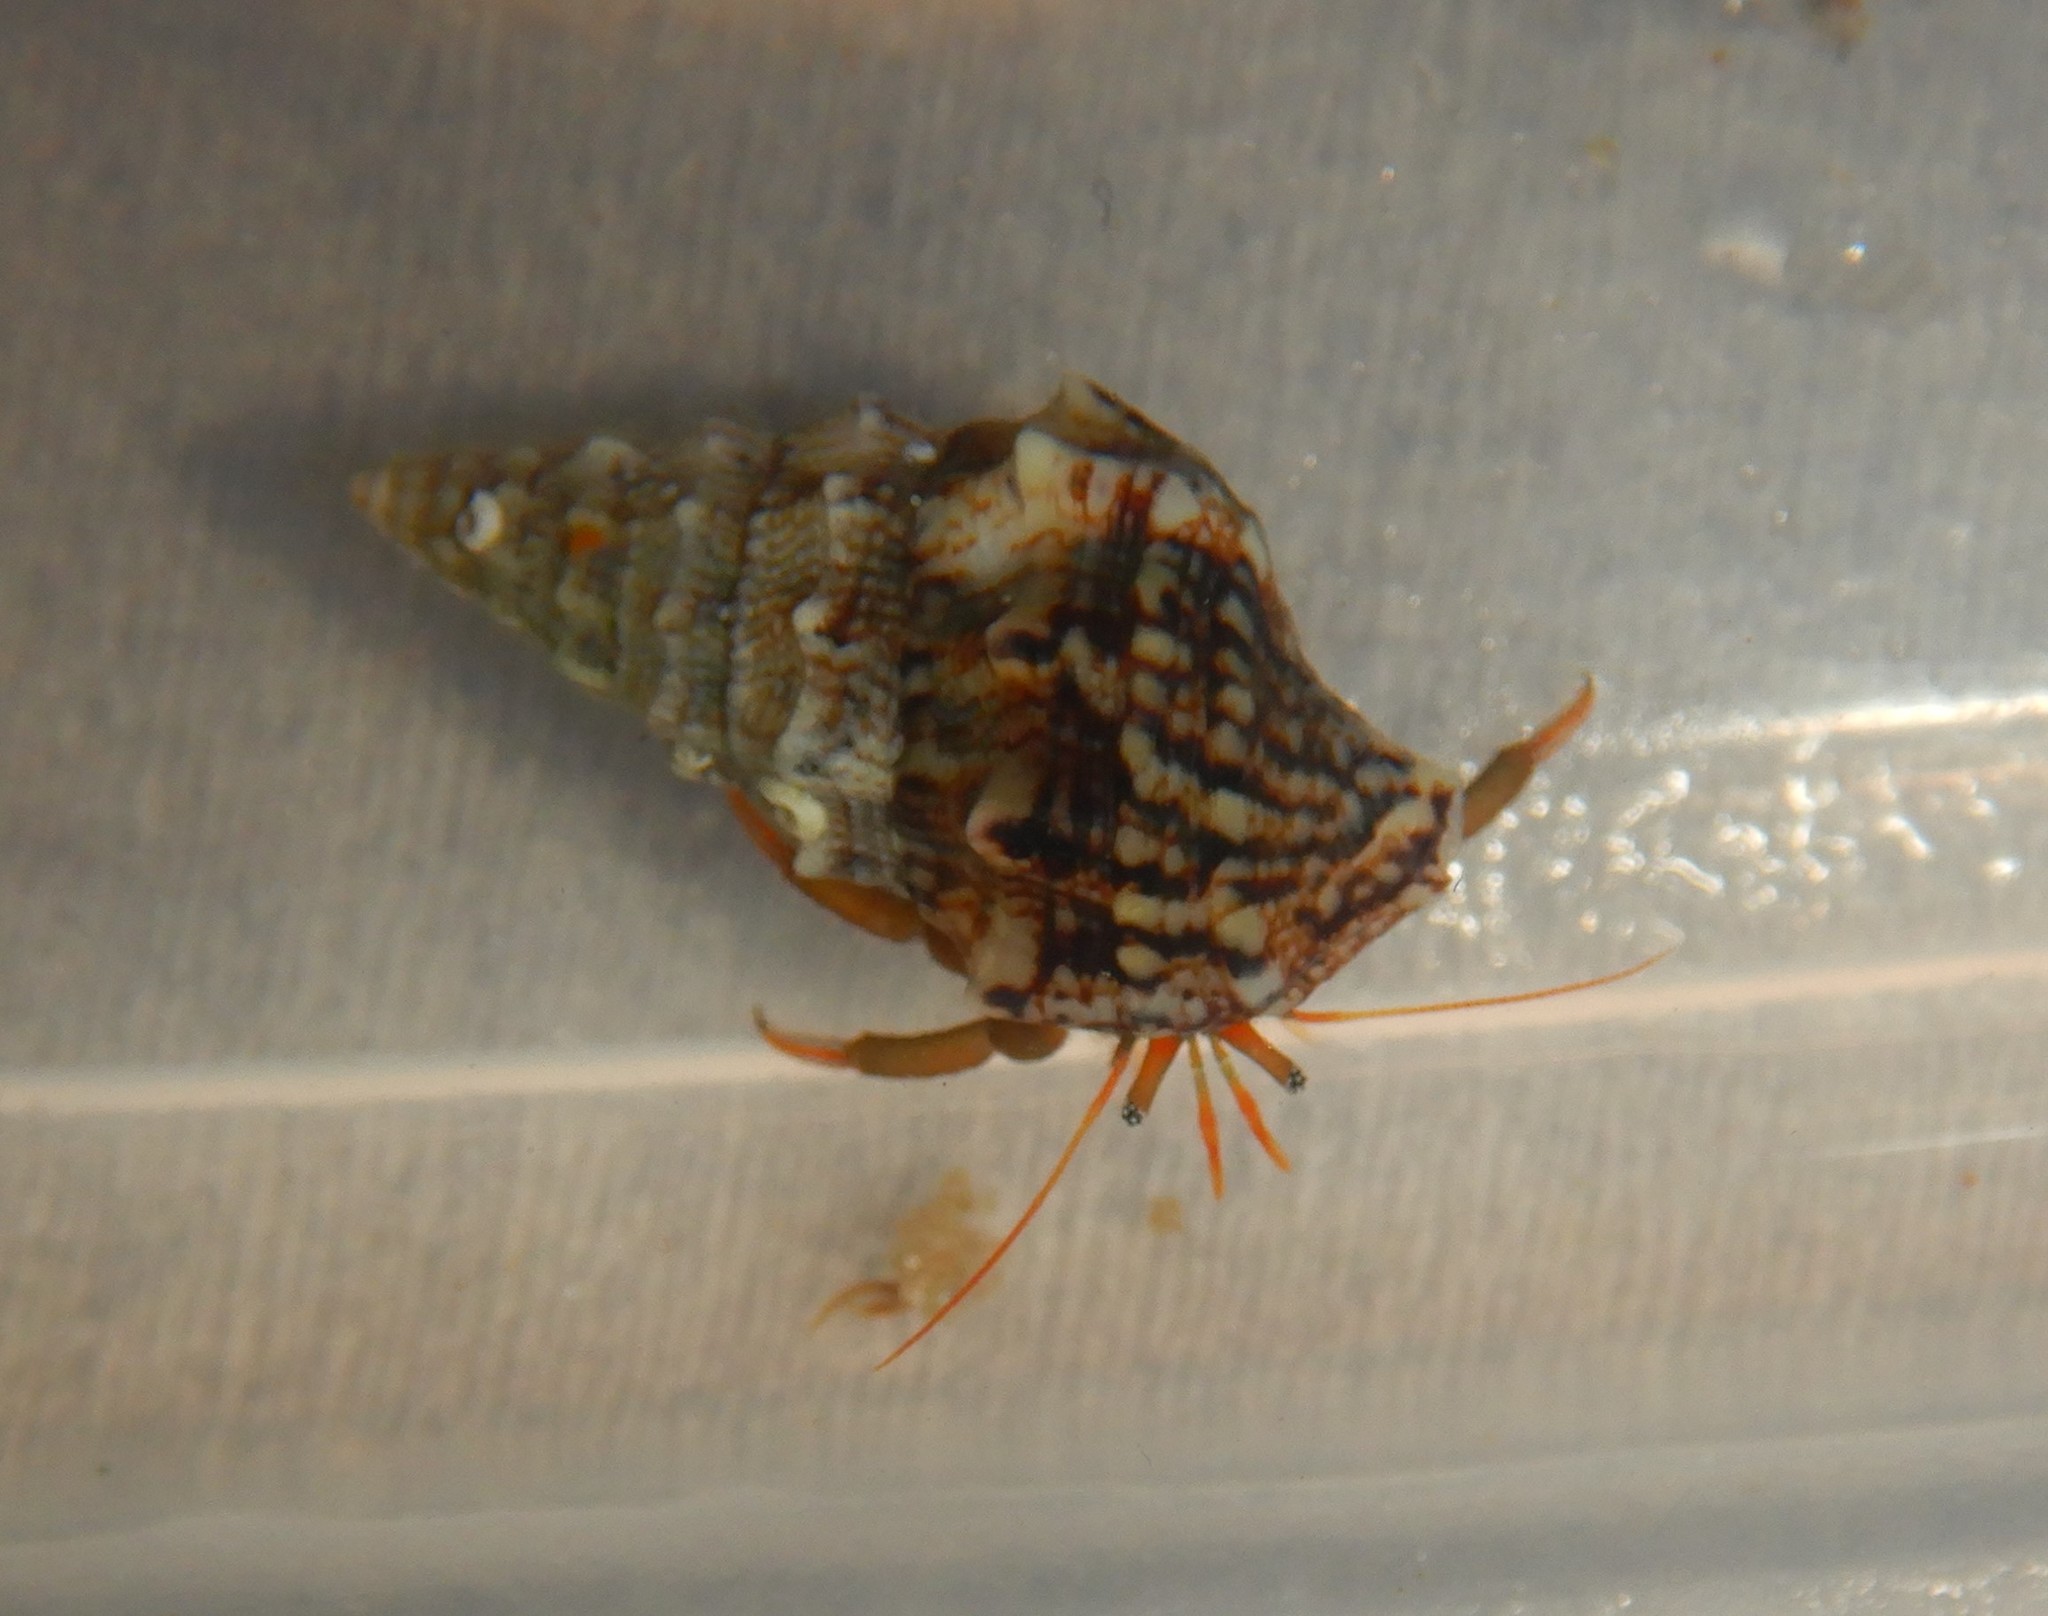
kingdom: Animalia
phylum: Arthropoda
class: Malacostraca
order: Decapoda
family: Diogenidae
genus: Clibanarius
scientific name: Clibanarius erythropus
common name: Hermit crab
